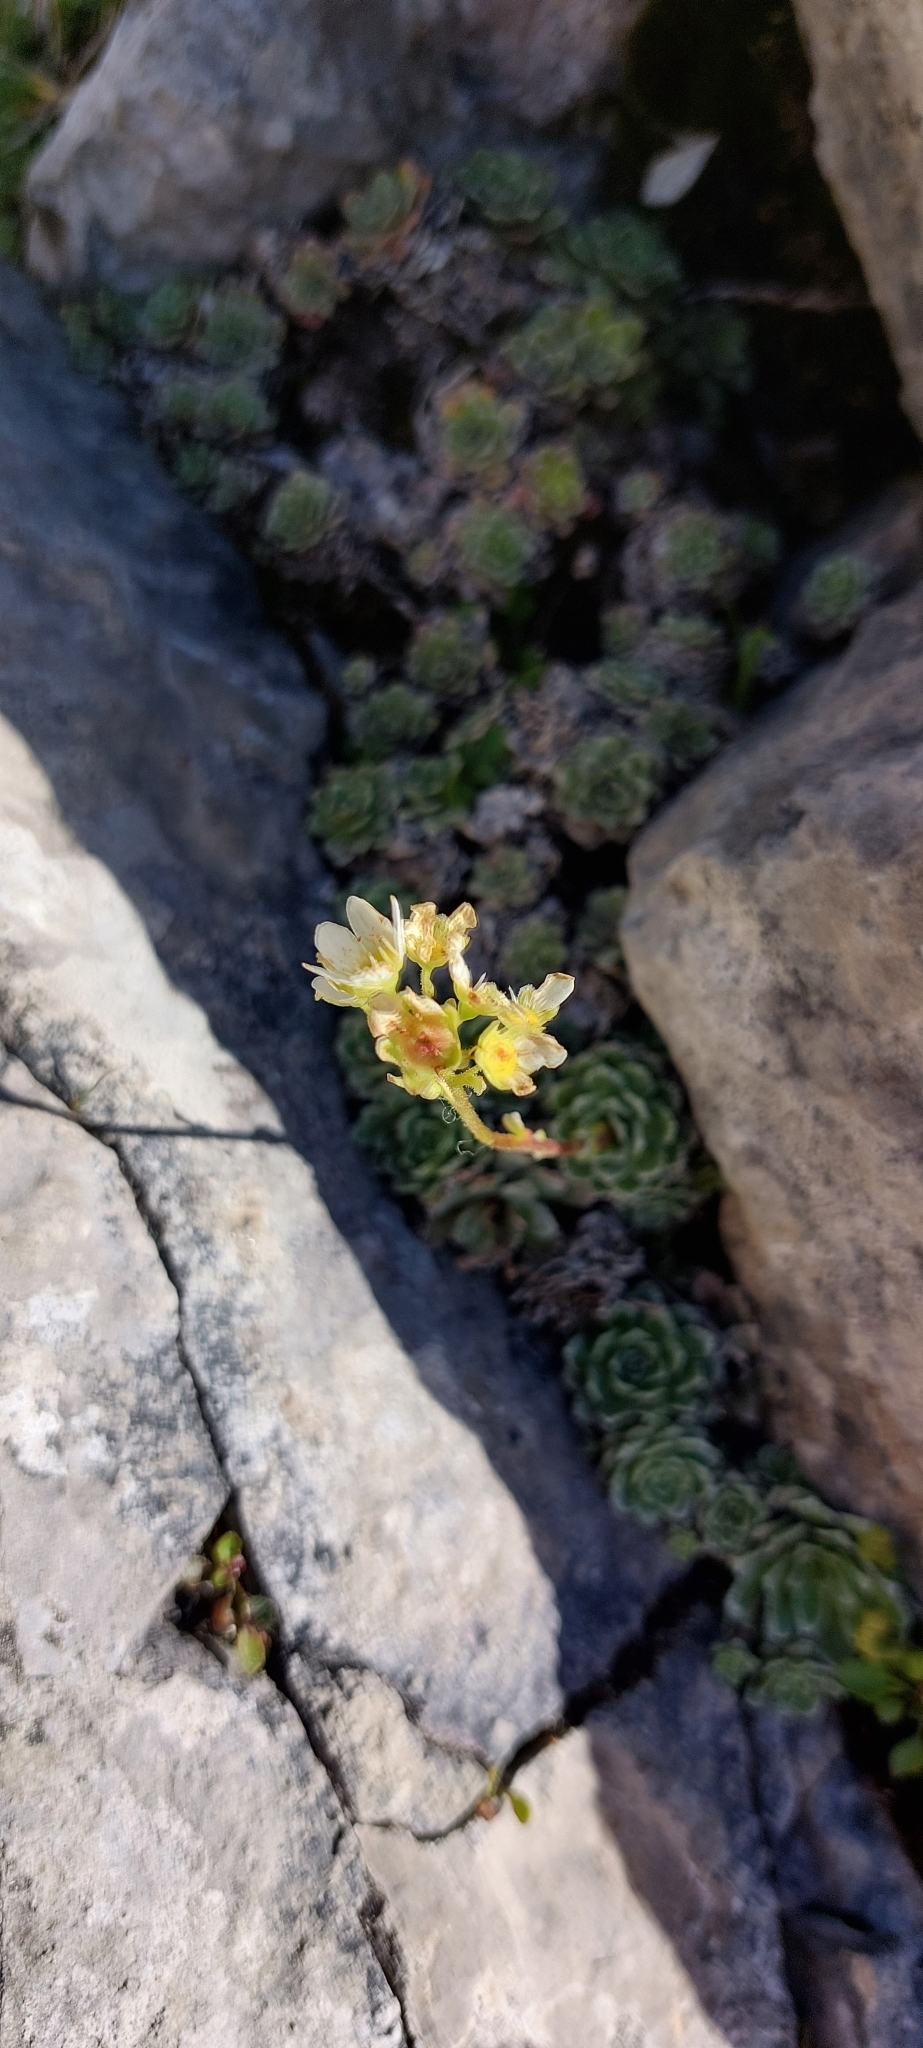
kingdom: Plantae
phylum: Tracheophyta
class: Magnoliopsida
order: Saxifragales
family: Saxifragaceae
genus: Saxifraga
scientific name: Saxifraga paniculata
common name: Livelong saxifrage
